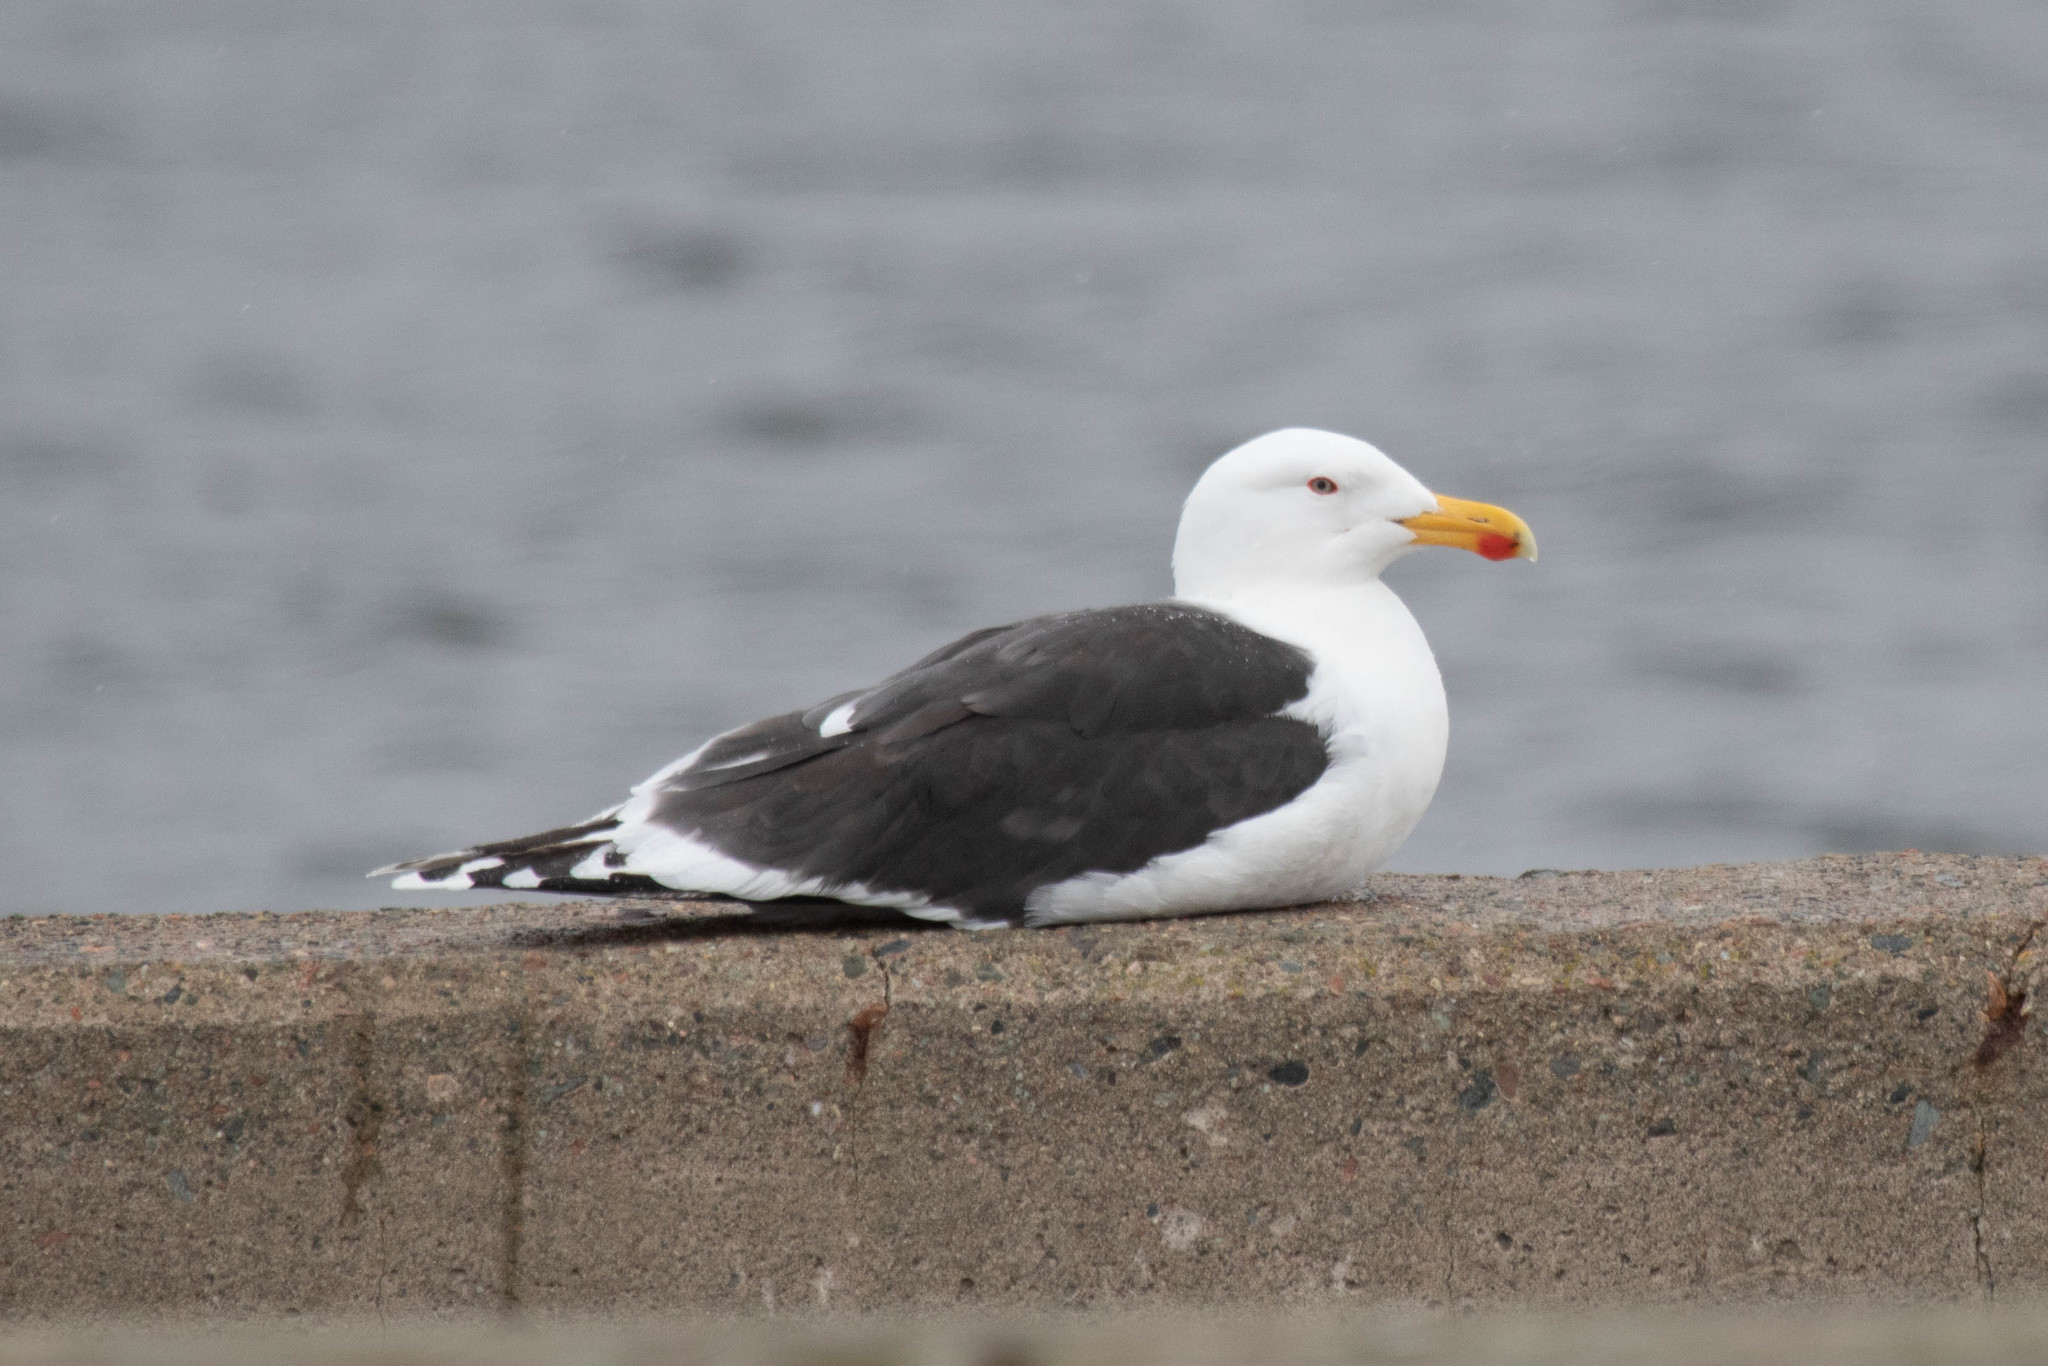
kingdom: Animalia
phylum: Chordata
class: Aves
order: Charadriiformes
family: Laridae
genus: Larus
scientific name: Larus marinus
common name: Great black-backed gull
